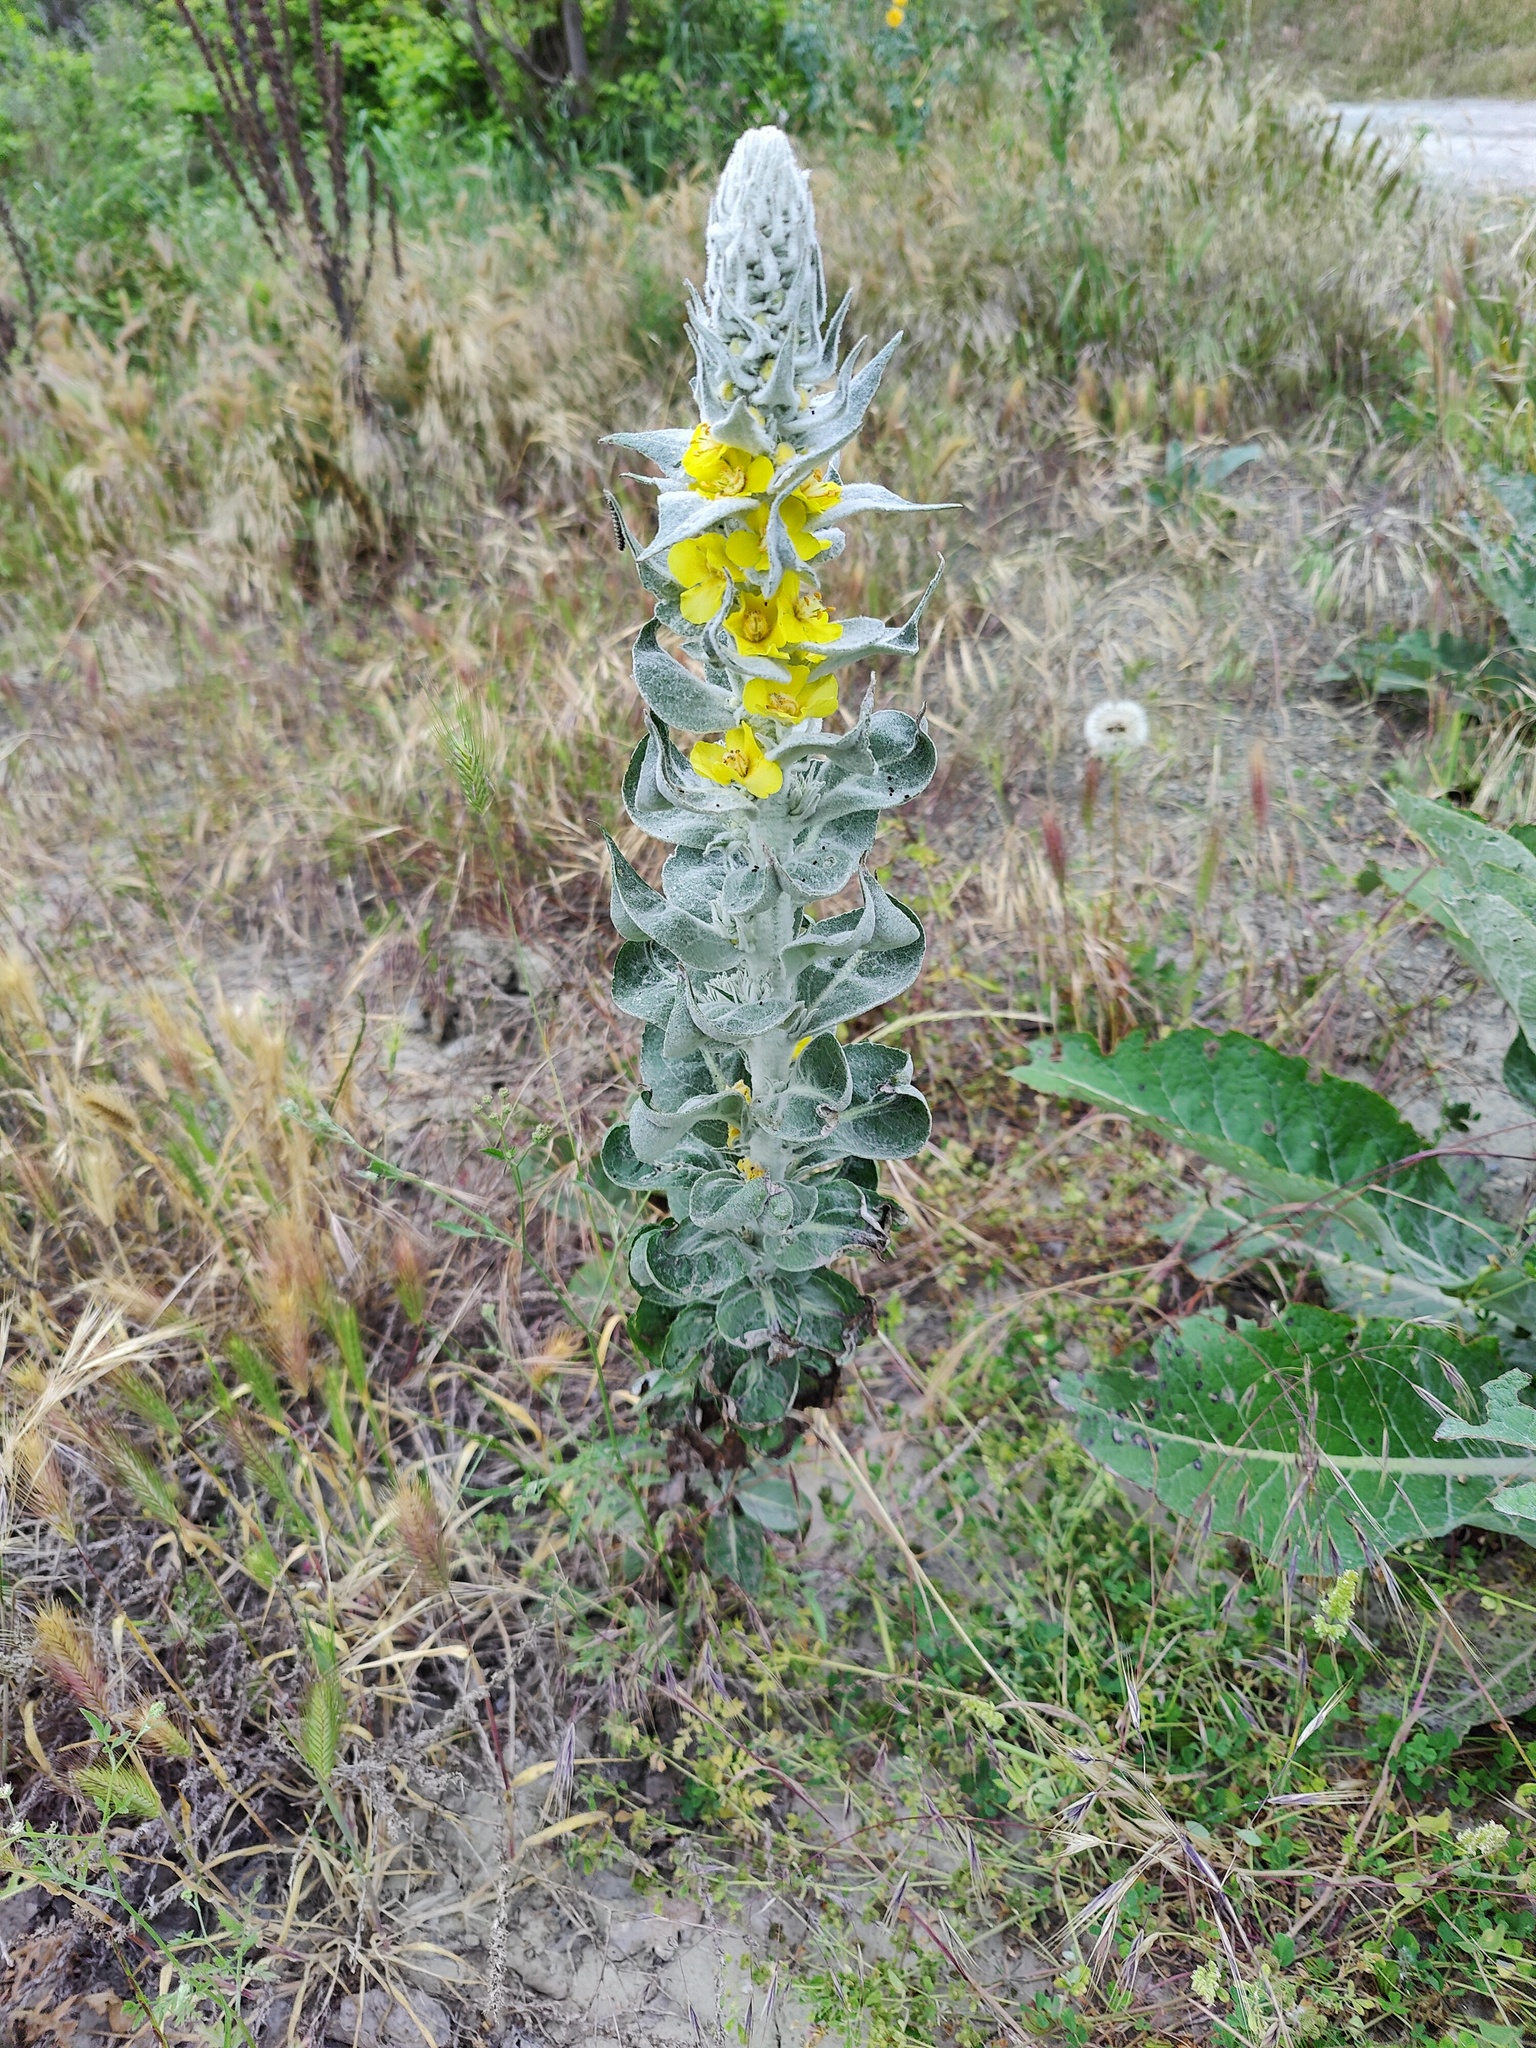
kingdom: Plantae
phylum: Tracheophyta
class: Magnoliopsida
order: Lamiales
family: Scrophulariaceae
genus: Verbascum
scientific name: Verbascum gnaphalodes
